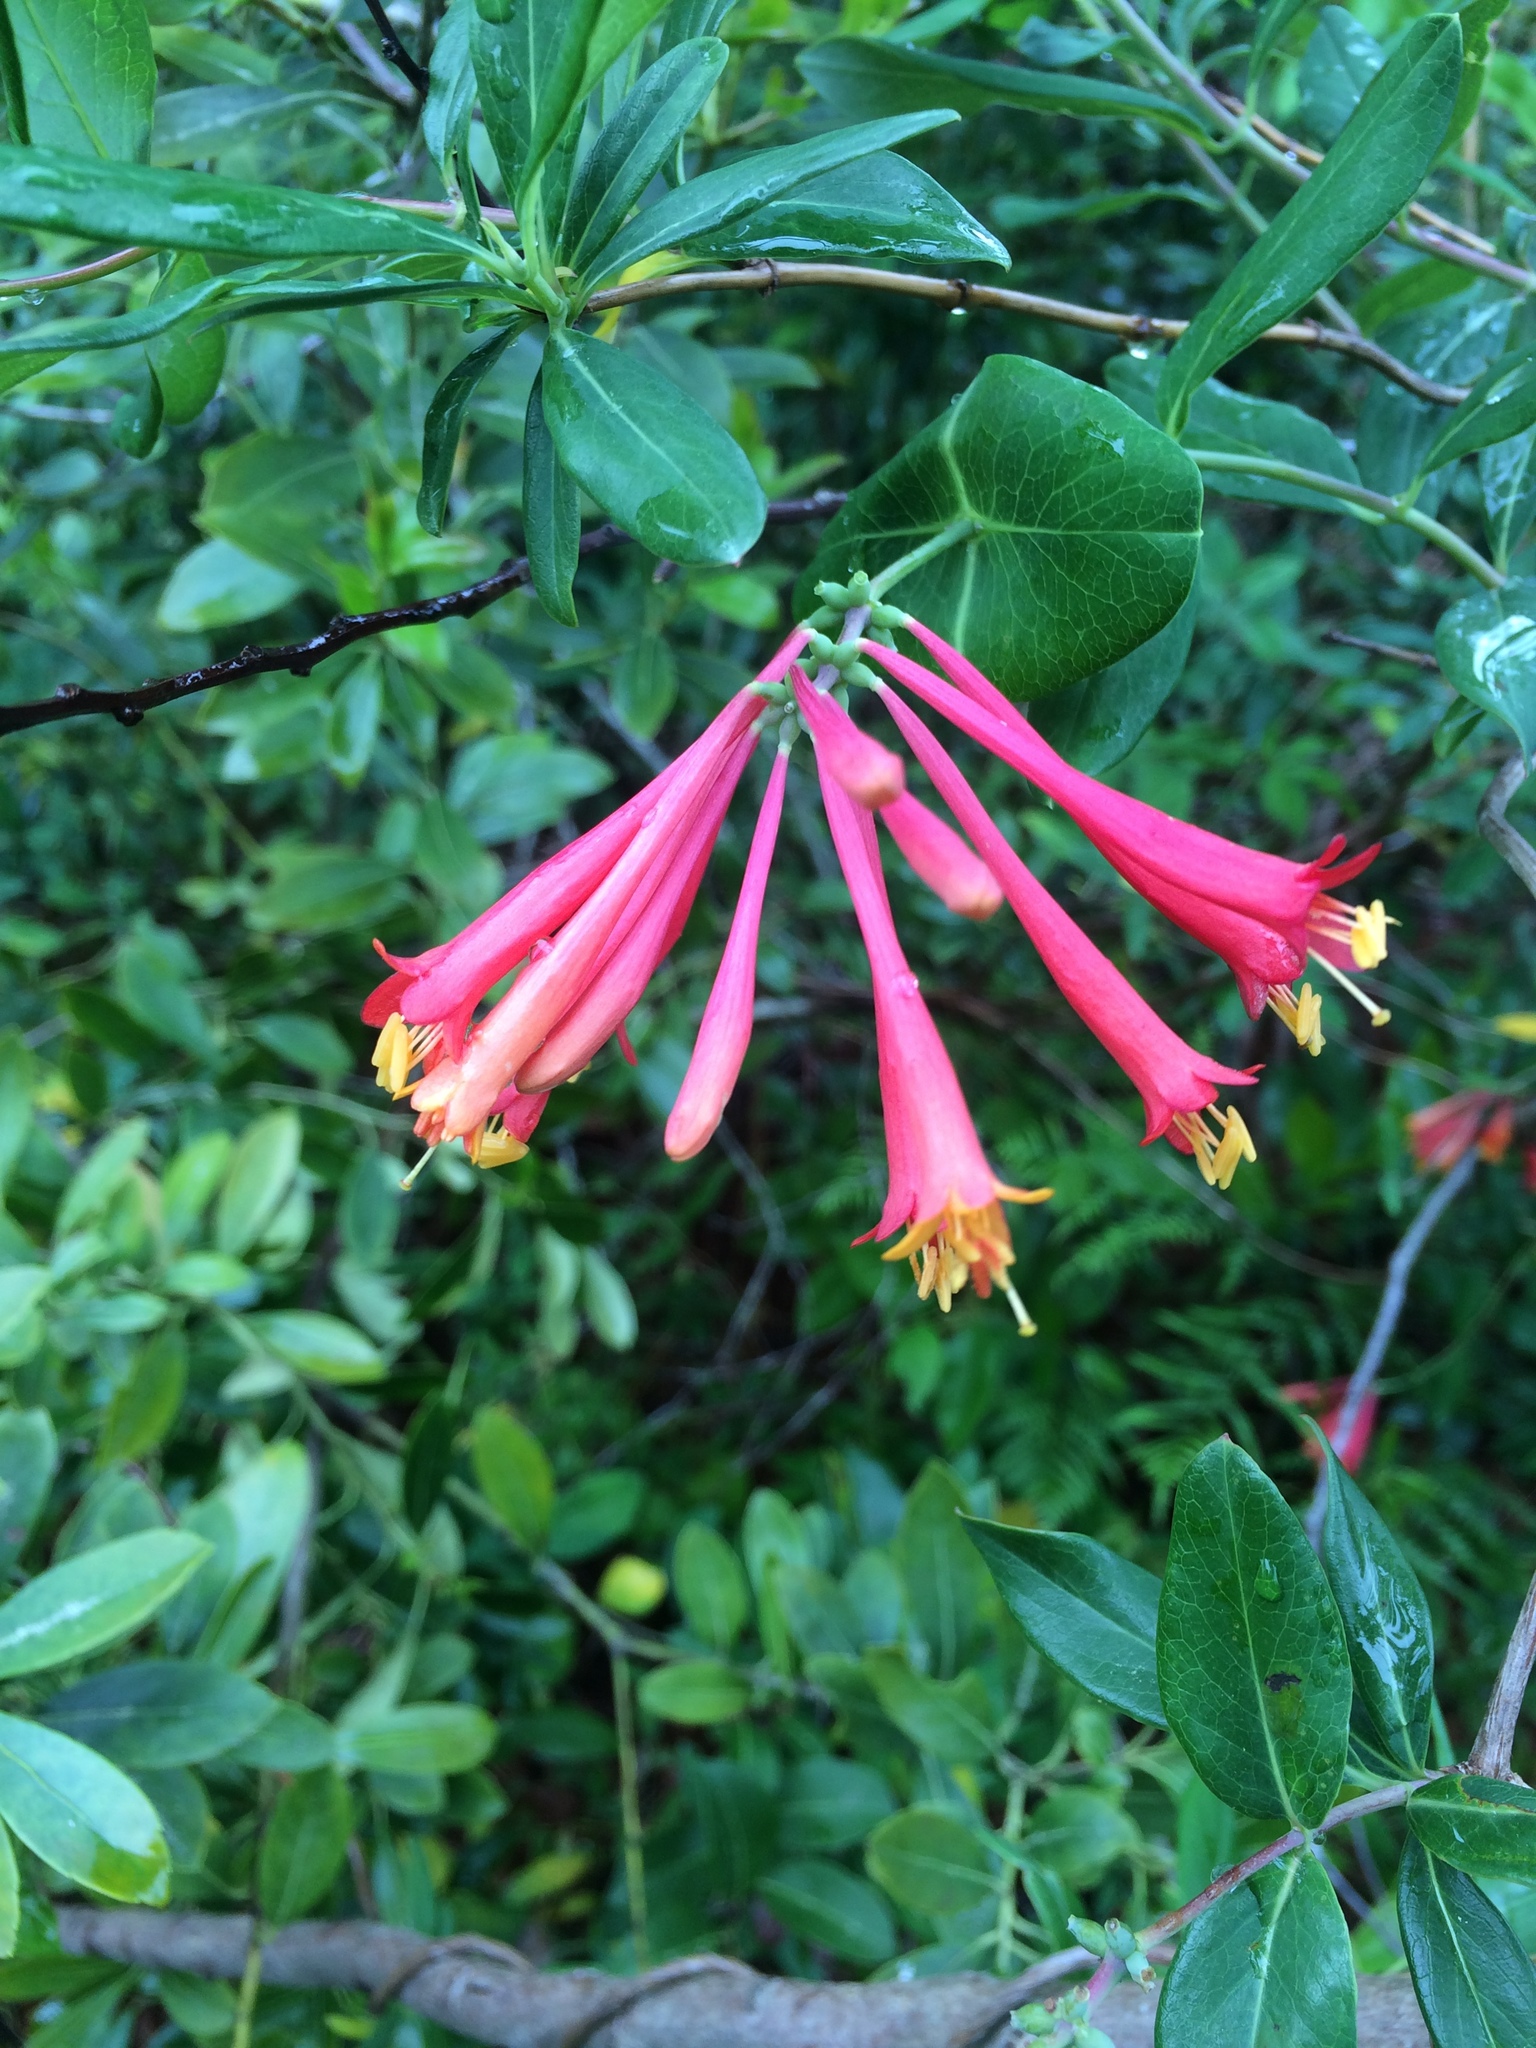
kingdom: Plantae
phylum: Tracheophyta
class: Magnoliopsida
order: Dipsacales
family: Caprifoliaceae
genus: Lonicera
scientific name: Lonicera sempervirens
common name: Coral honeysuckle
